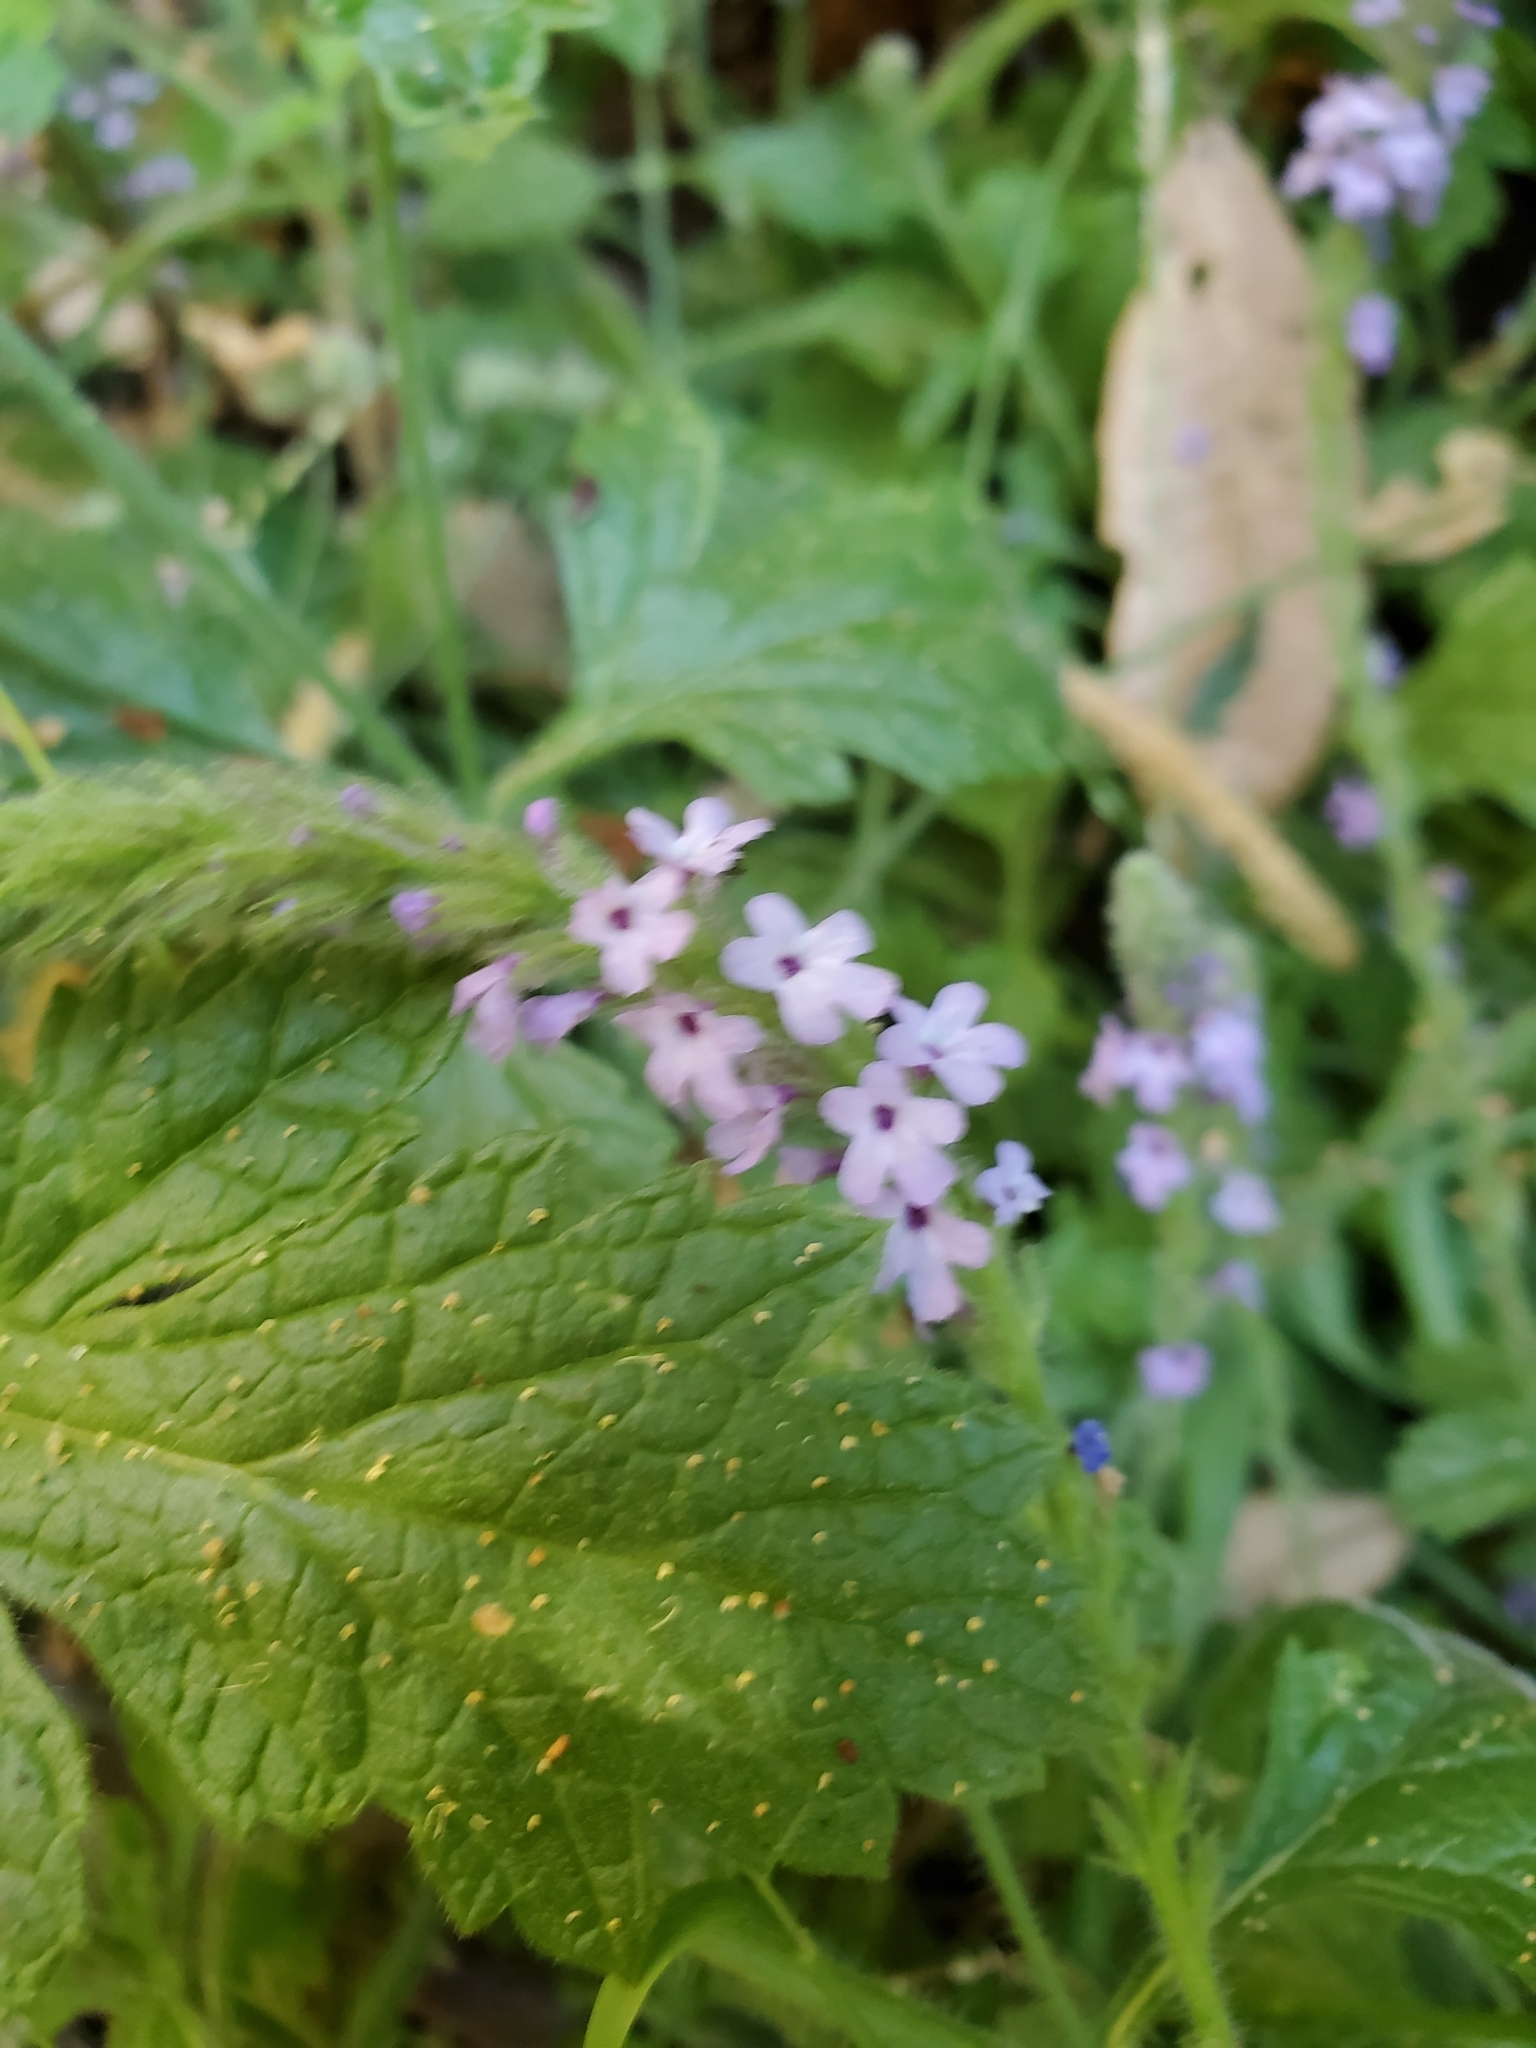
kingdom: Plantae
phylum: Tracheophyta
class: Magnoliopsida
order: Lamiales
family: Verbenaceae
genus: Verbena
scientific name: Verbena lasiostachys
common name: Vervain
